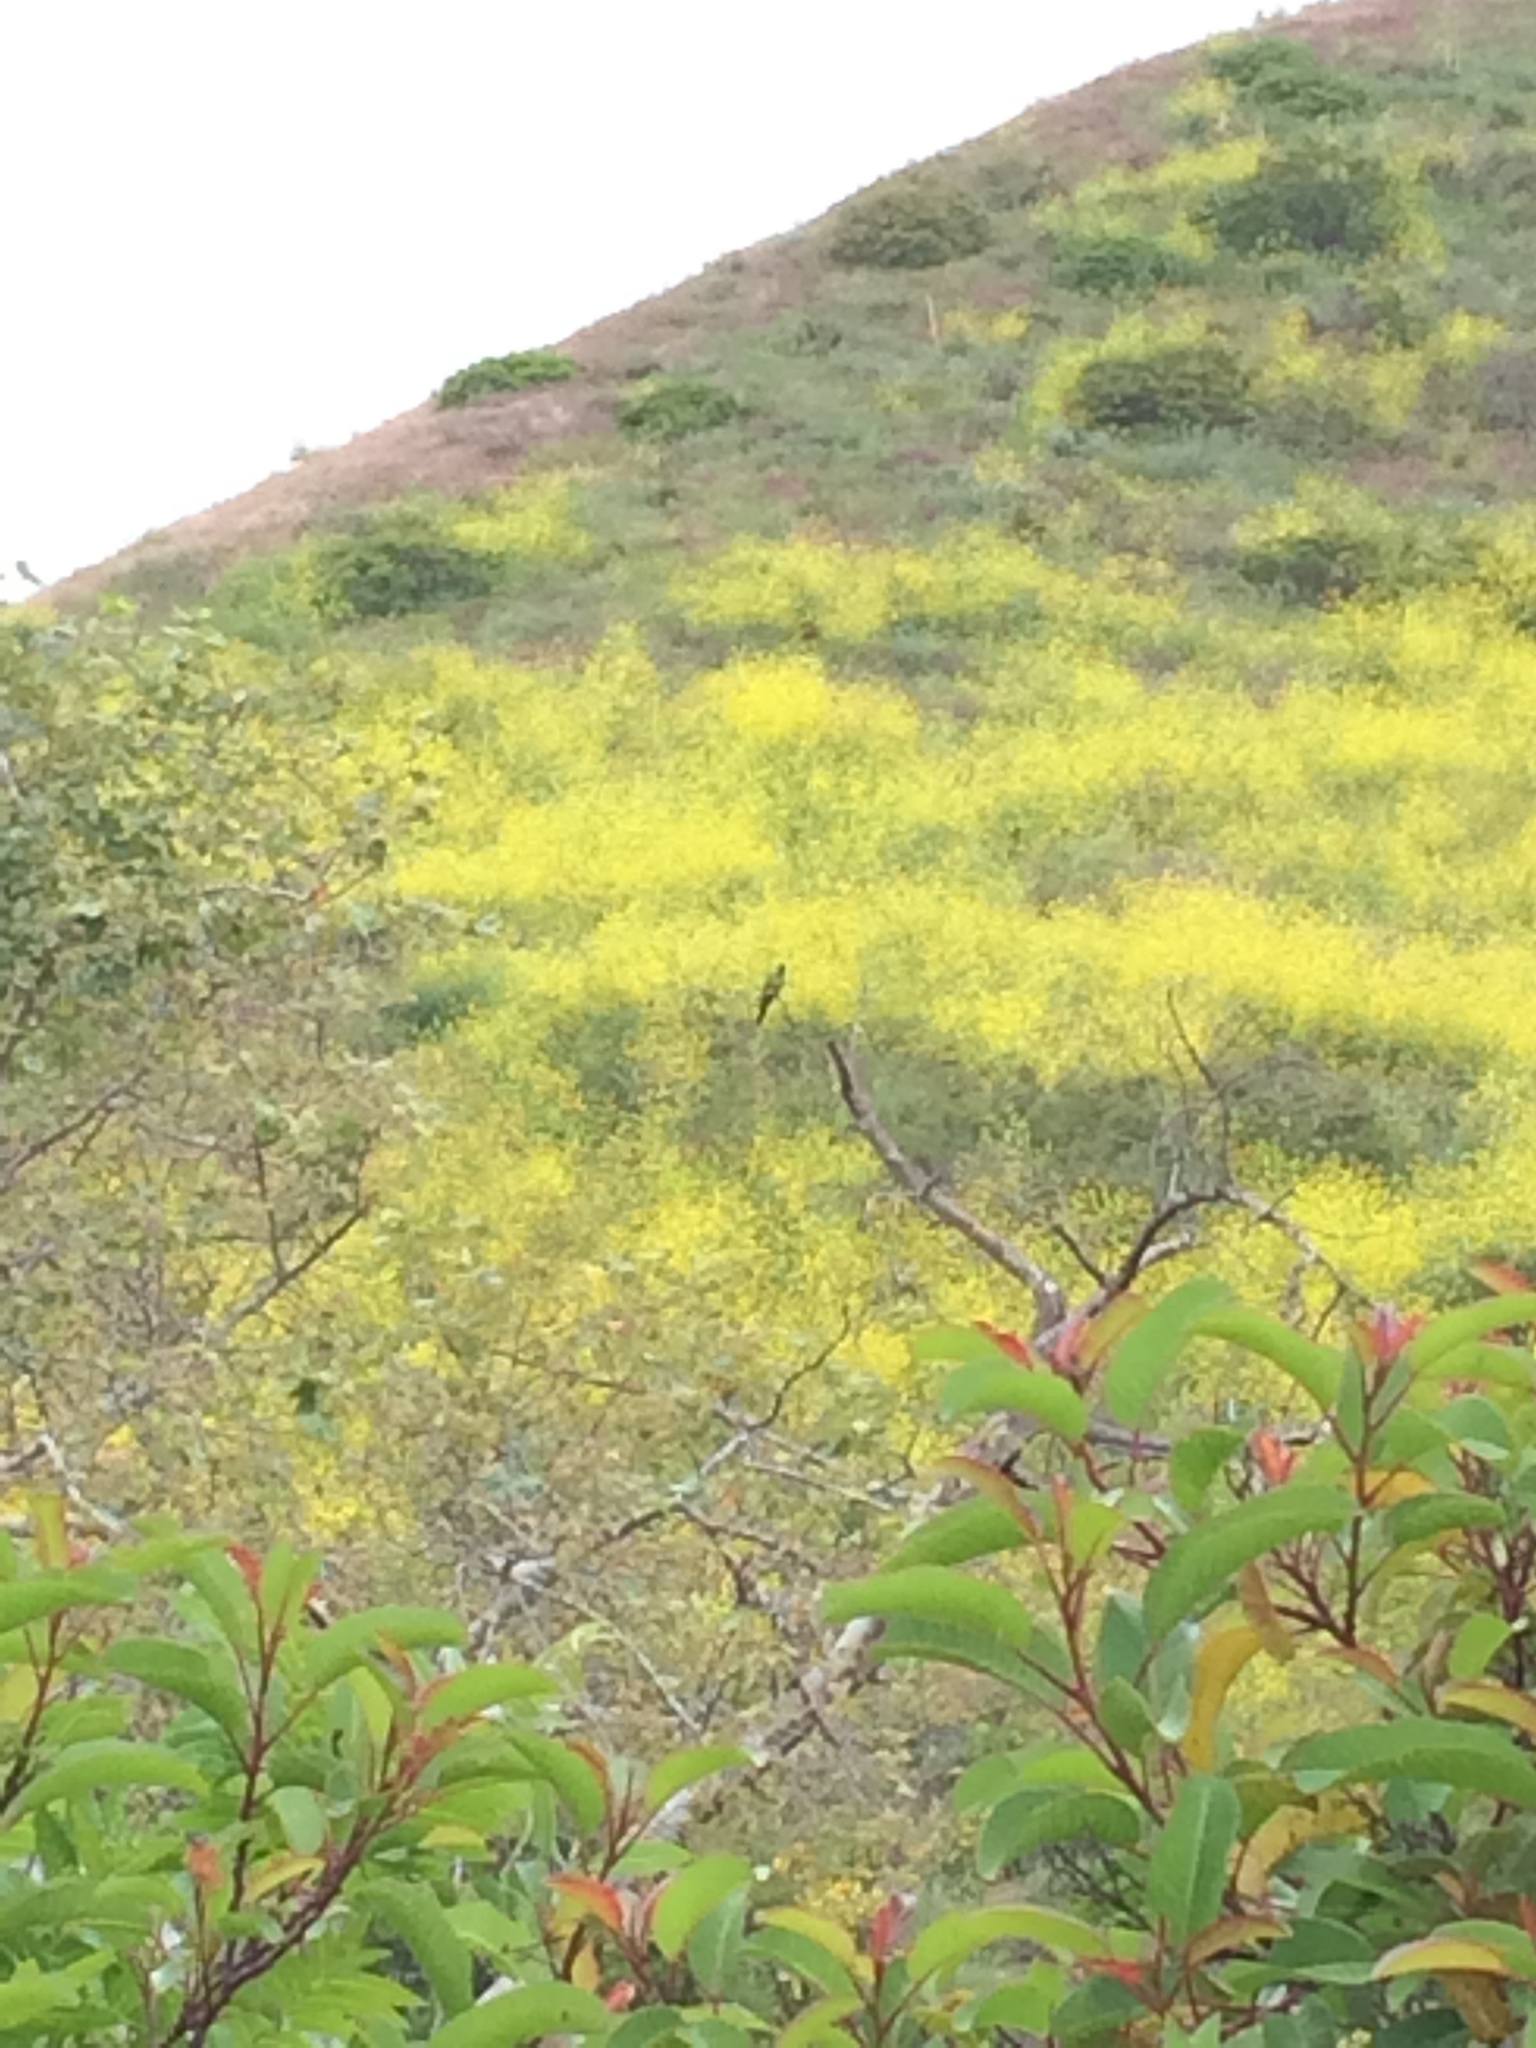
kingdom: Animalia
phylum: Chordata
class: Aves
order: Psittaciformes
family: Psittacidae
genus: Nandayus
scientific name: Nandayus nenday
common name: Nanday parakeet
